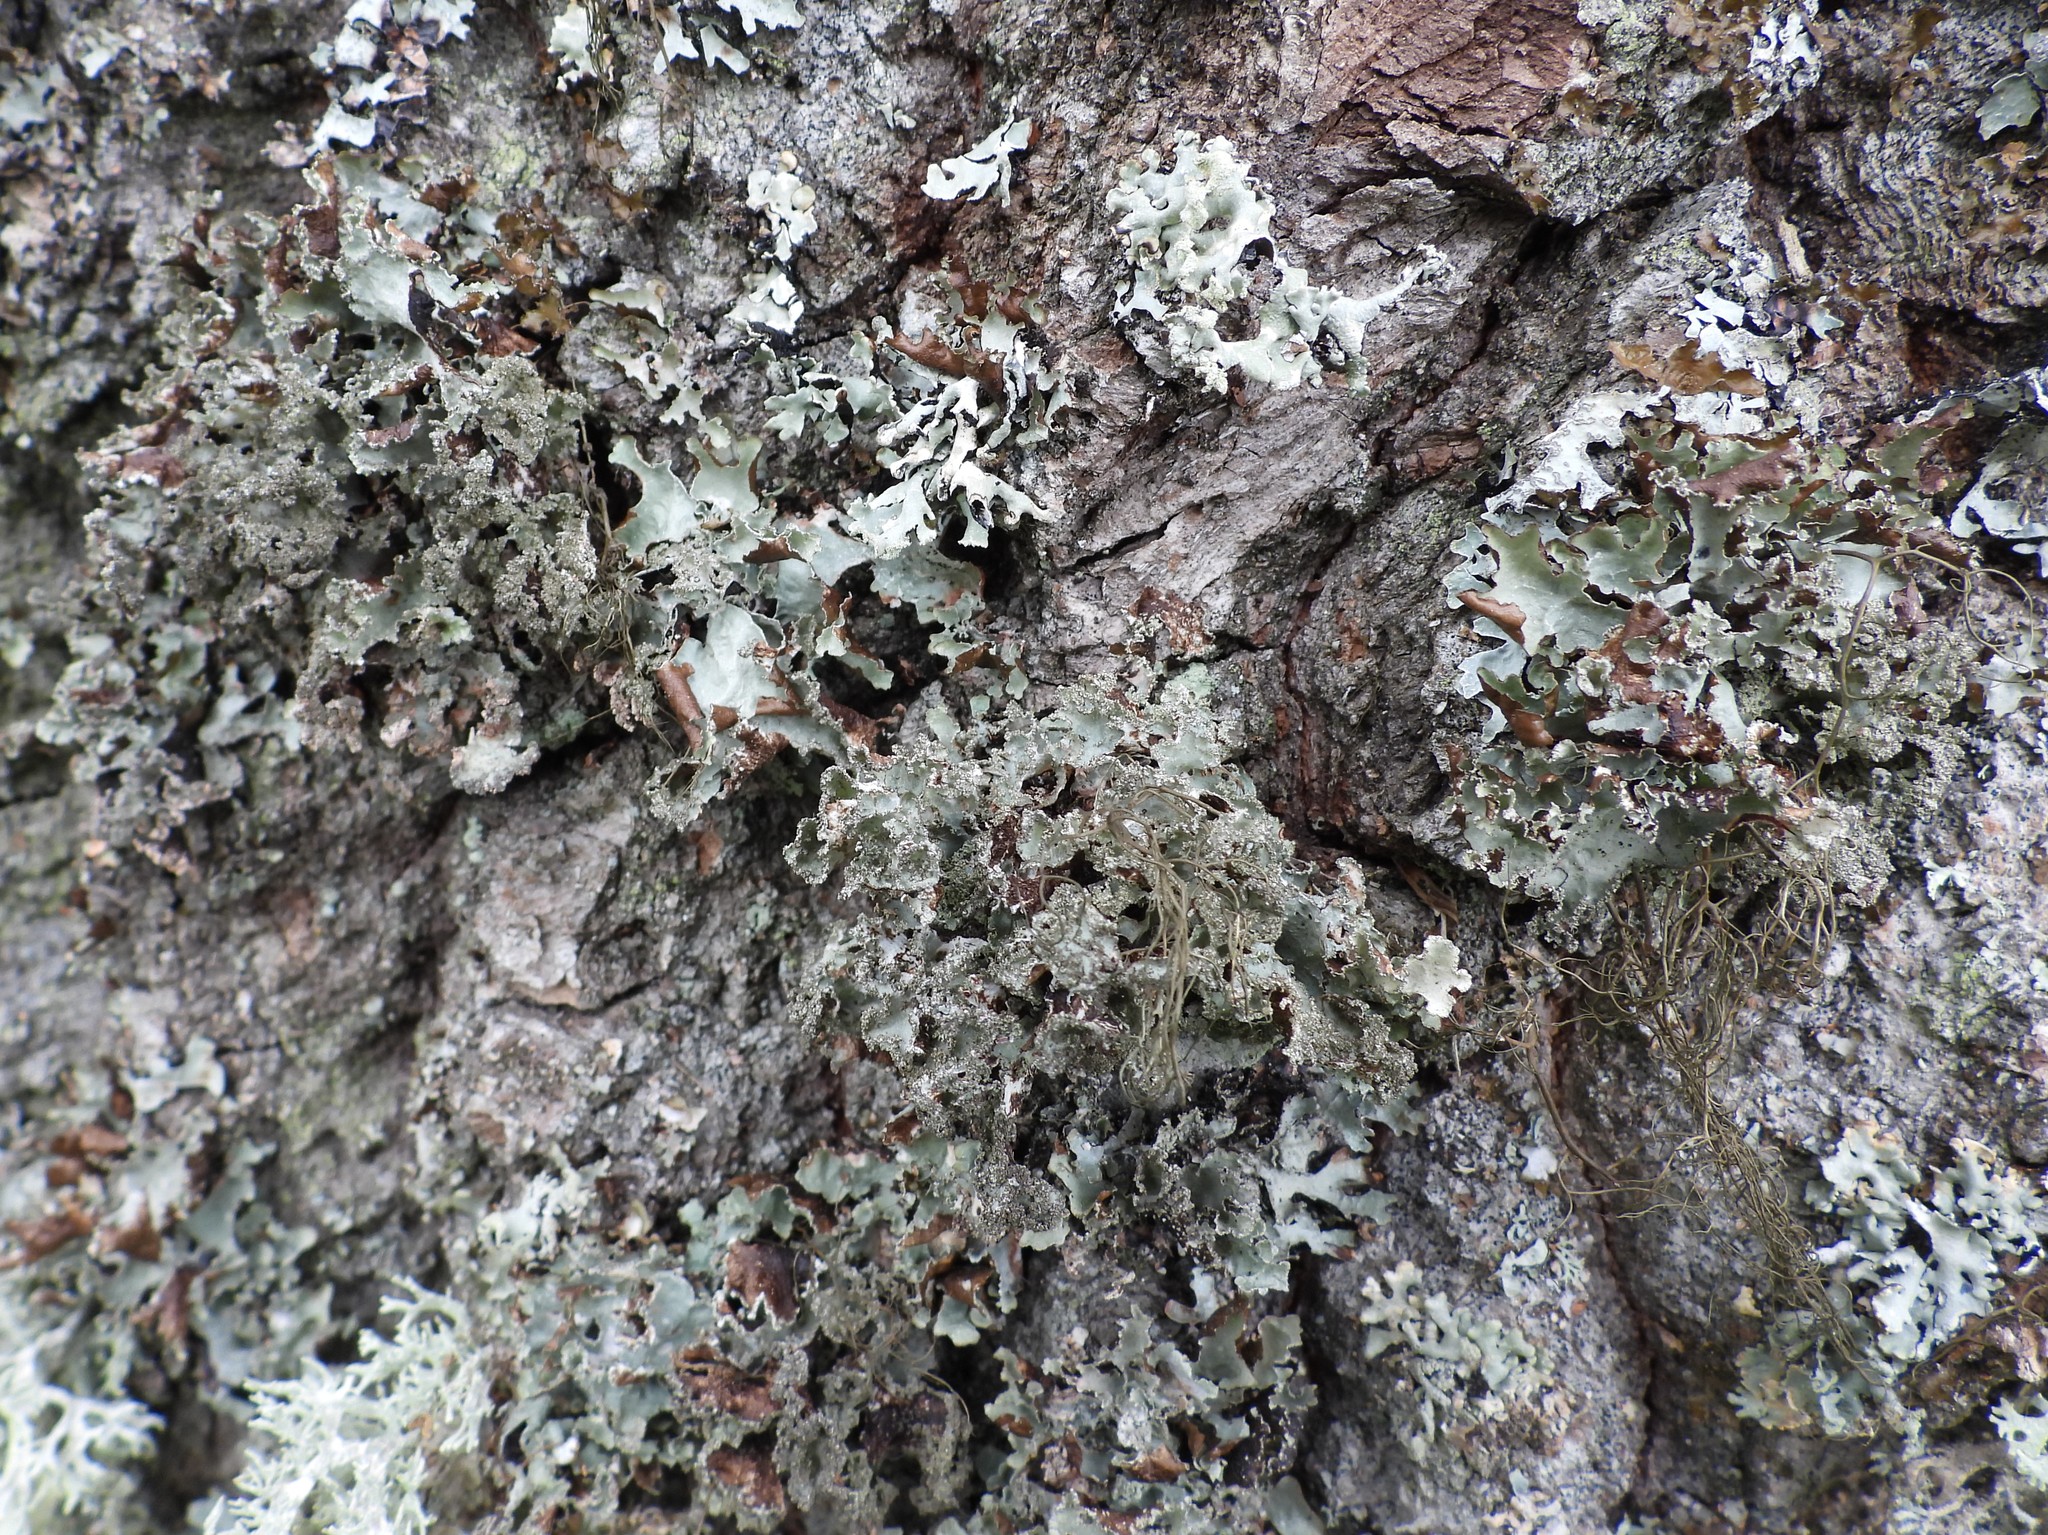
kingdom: Fungi
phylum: Ascomycota
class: Lecanoromycetes
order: Lecanorales
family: Parmeliaceae
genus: Platismatia
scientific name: Platismatia glauca
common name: Varied rag lichen
